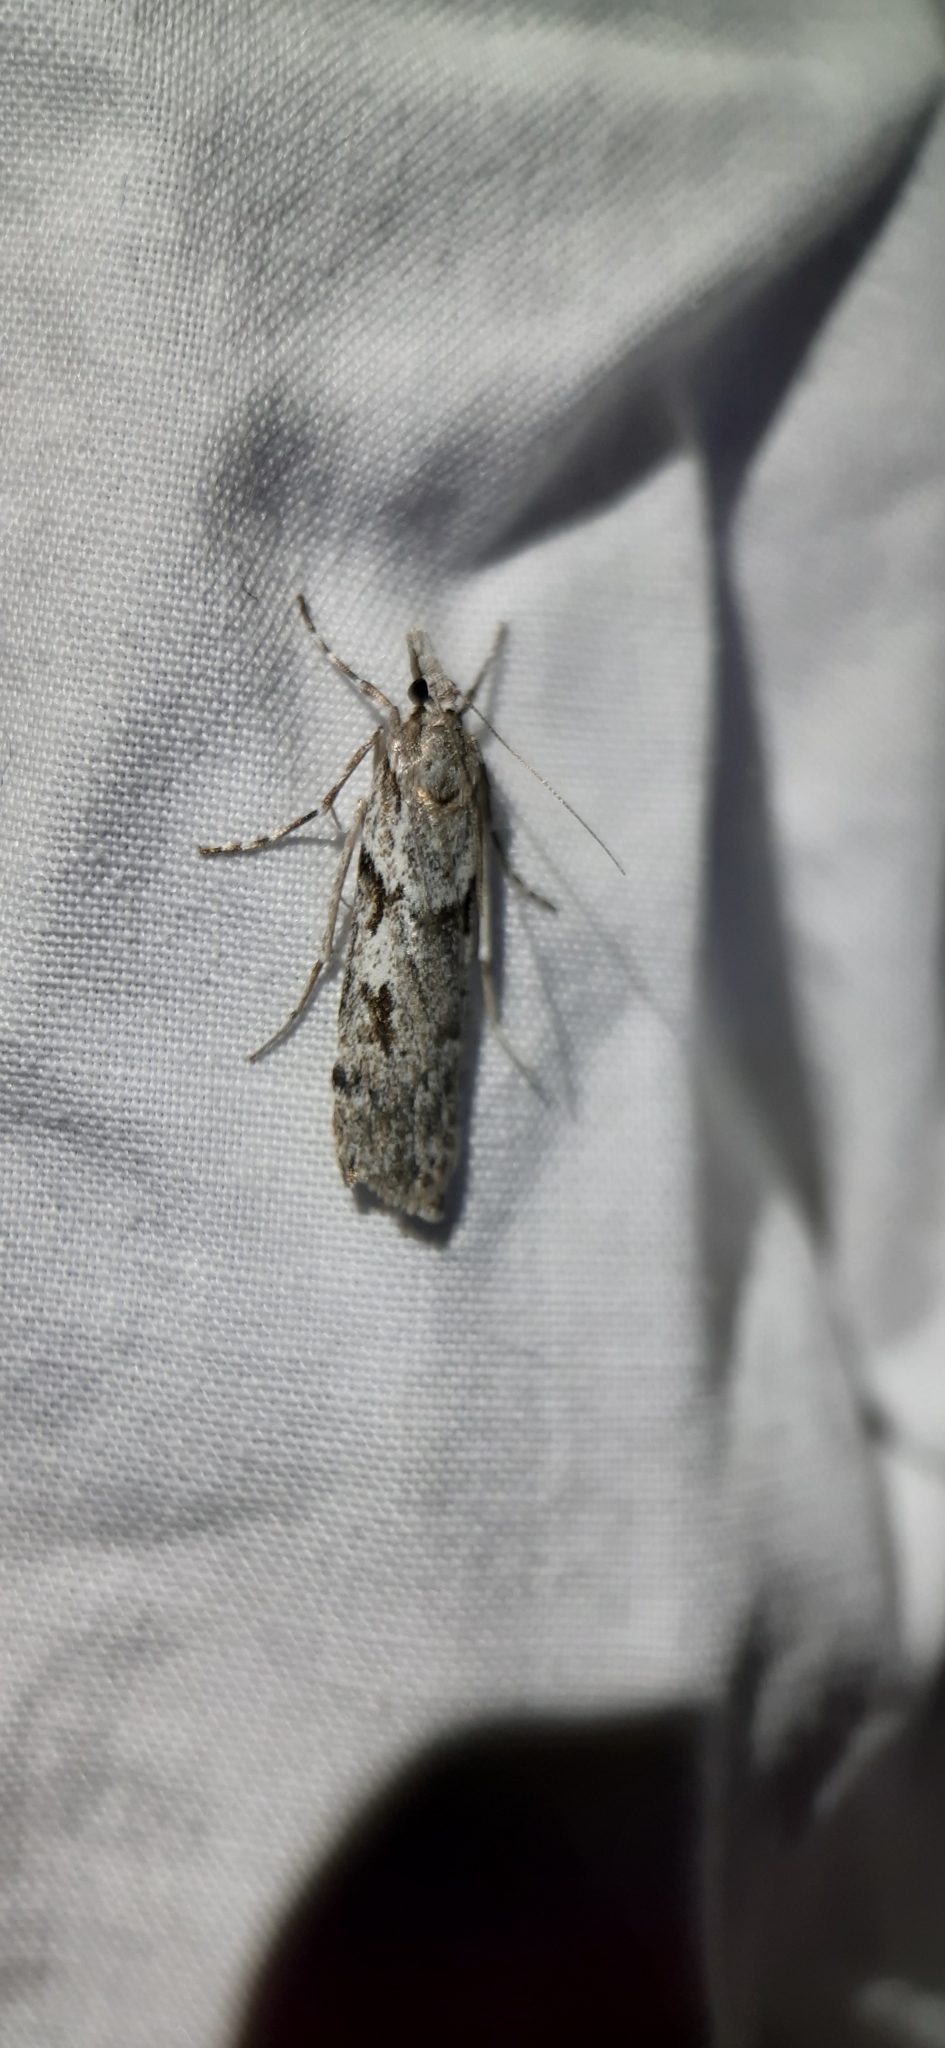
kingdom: Animalia
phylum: Arthropoda
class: Insecta
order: Lepidoptera
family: Crambidae
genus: Scoparia
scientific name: Scoparia halopis
